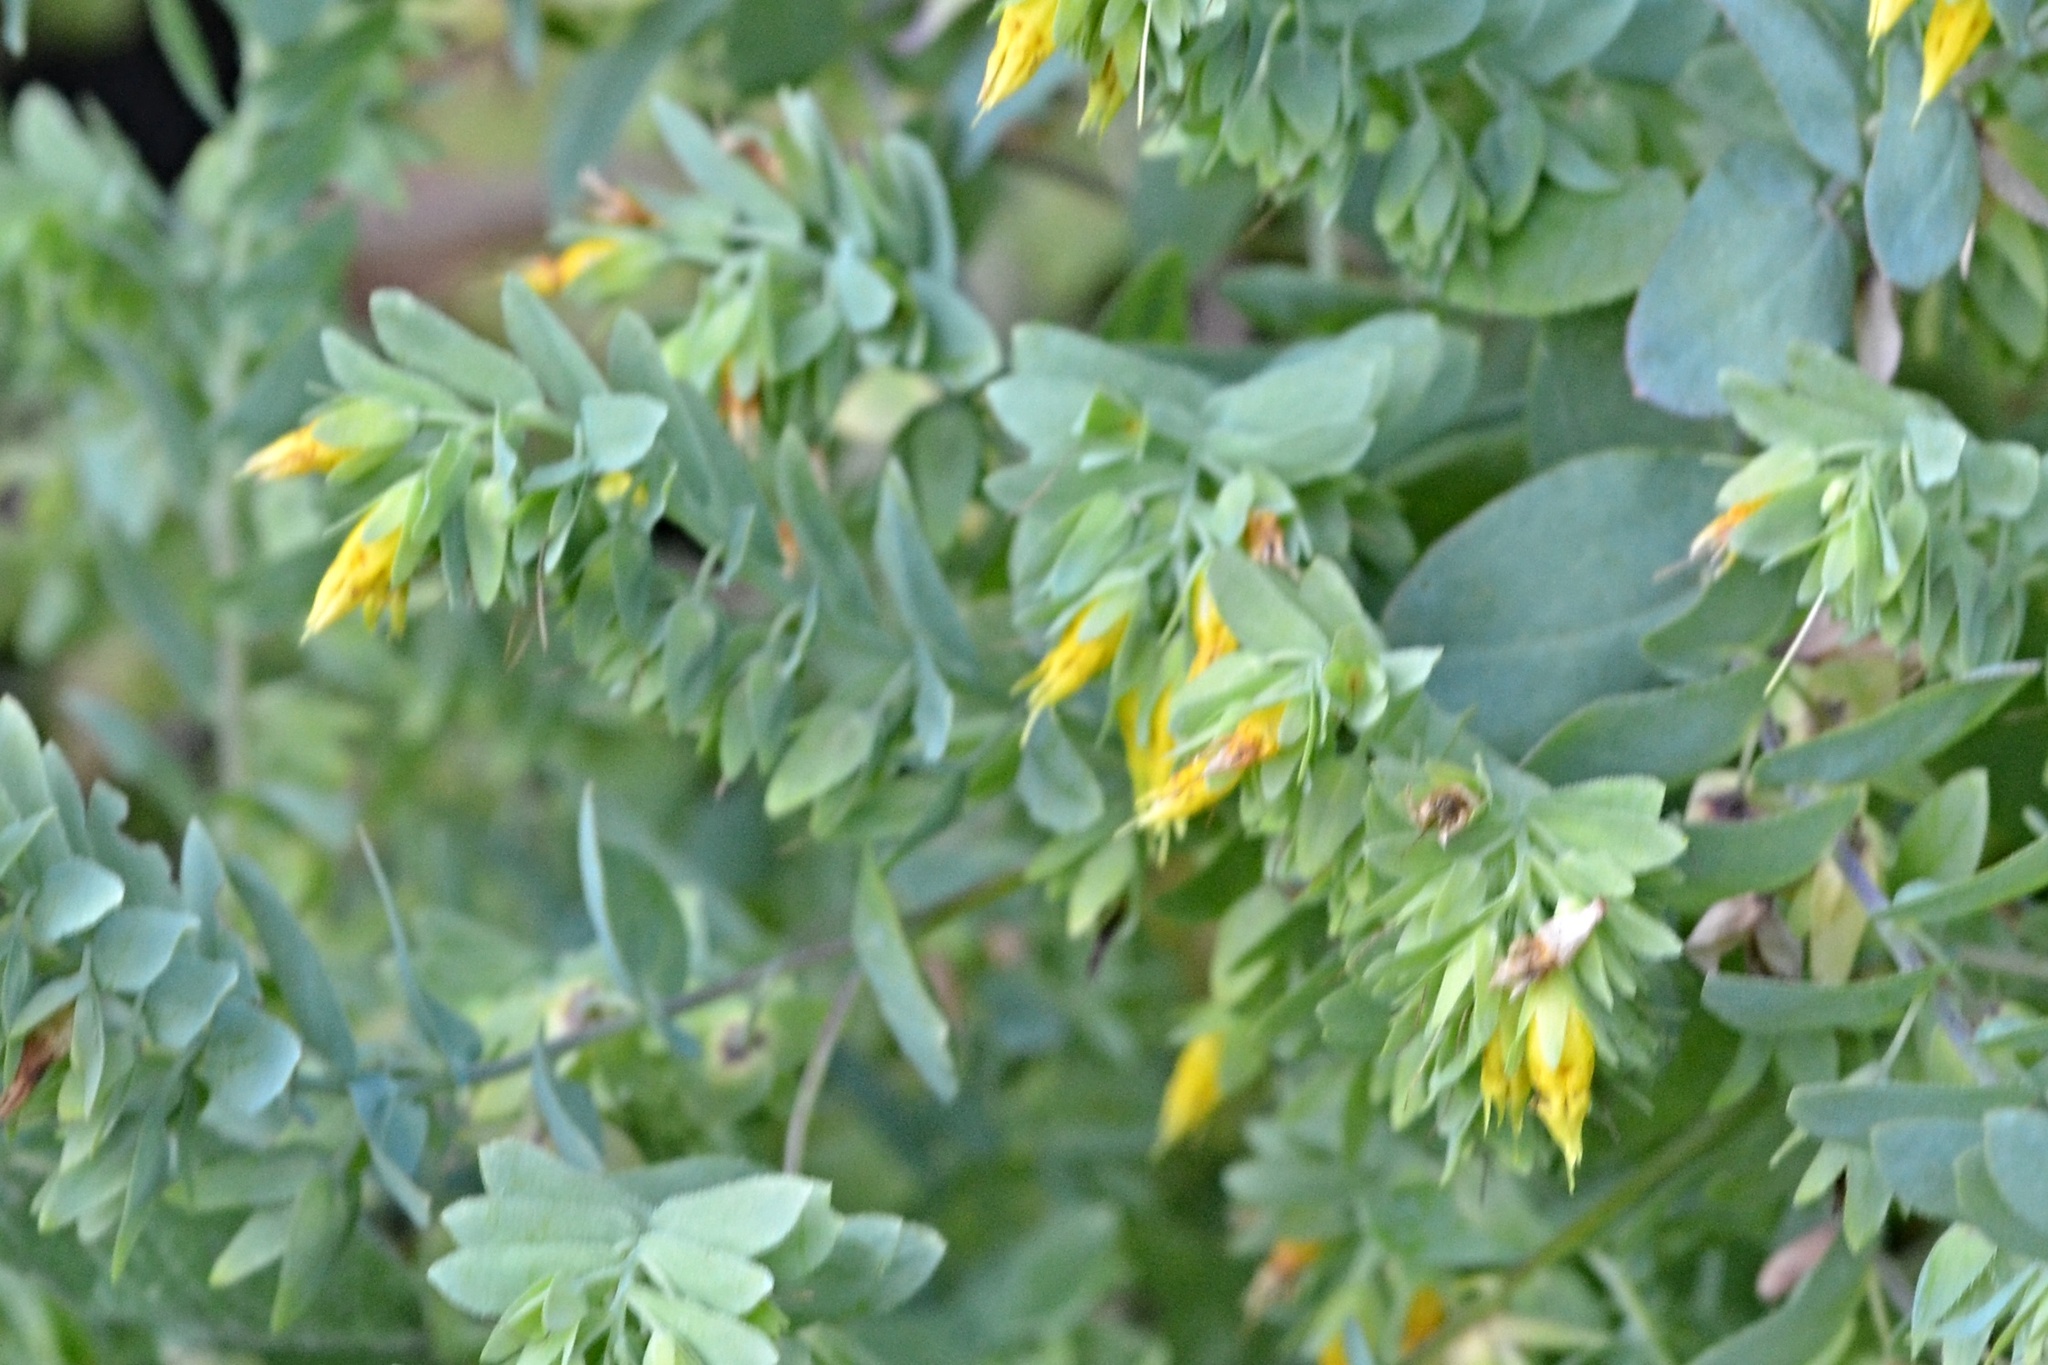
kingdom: Plantae
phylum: Tracheophyta
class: Magnoliopsida
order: Boraginales
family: Boraginaceae
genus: Cerinthe
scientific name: Cerinthe minor
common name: Lesser honeywort
